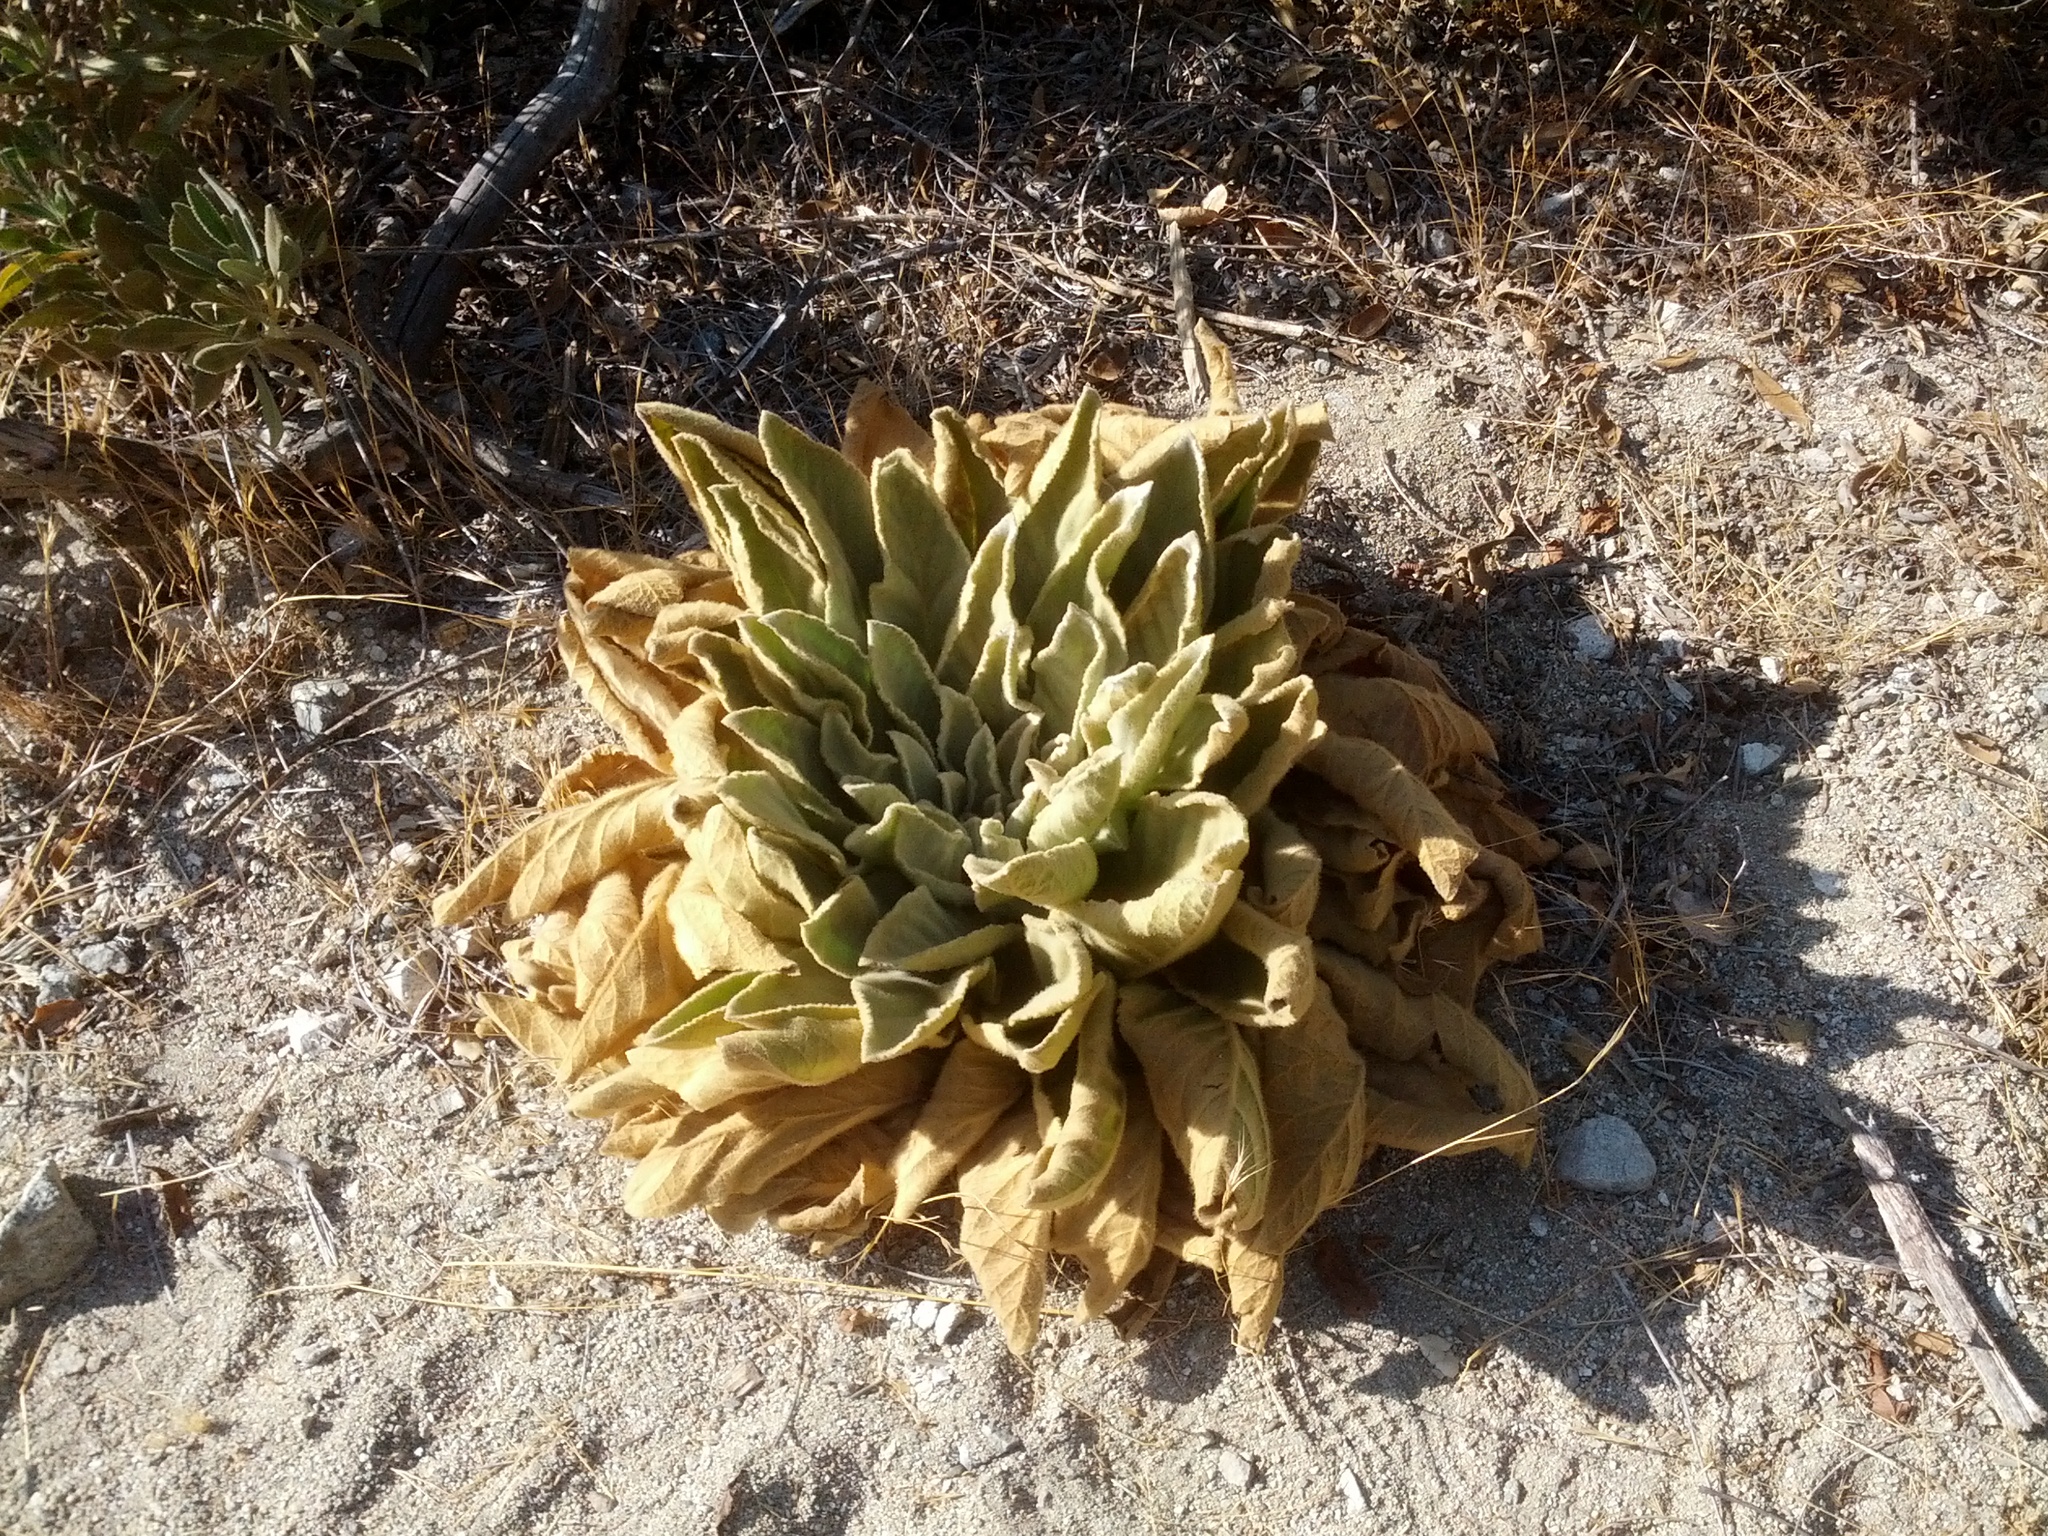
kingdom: Plantae
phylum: Tracheophyta
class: Magnoliopsida
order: Lamiales
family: Scrophulariaceae
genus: Verbascum
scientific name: Verbascum thapsus
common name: Common mullein
